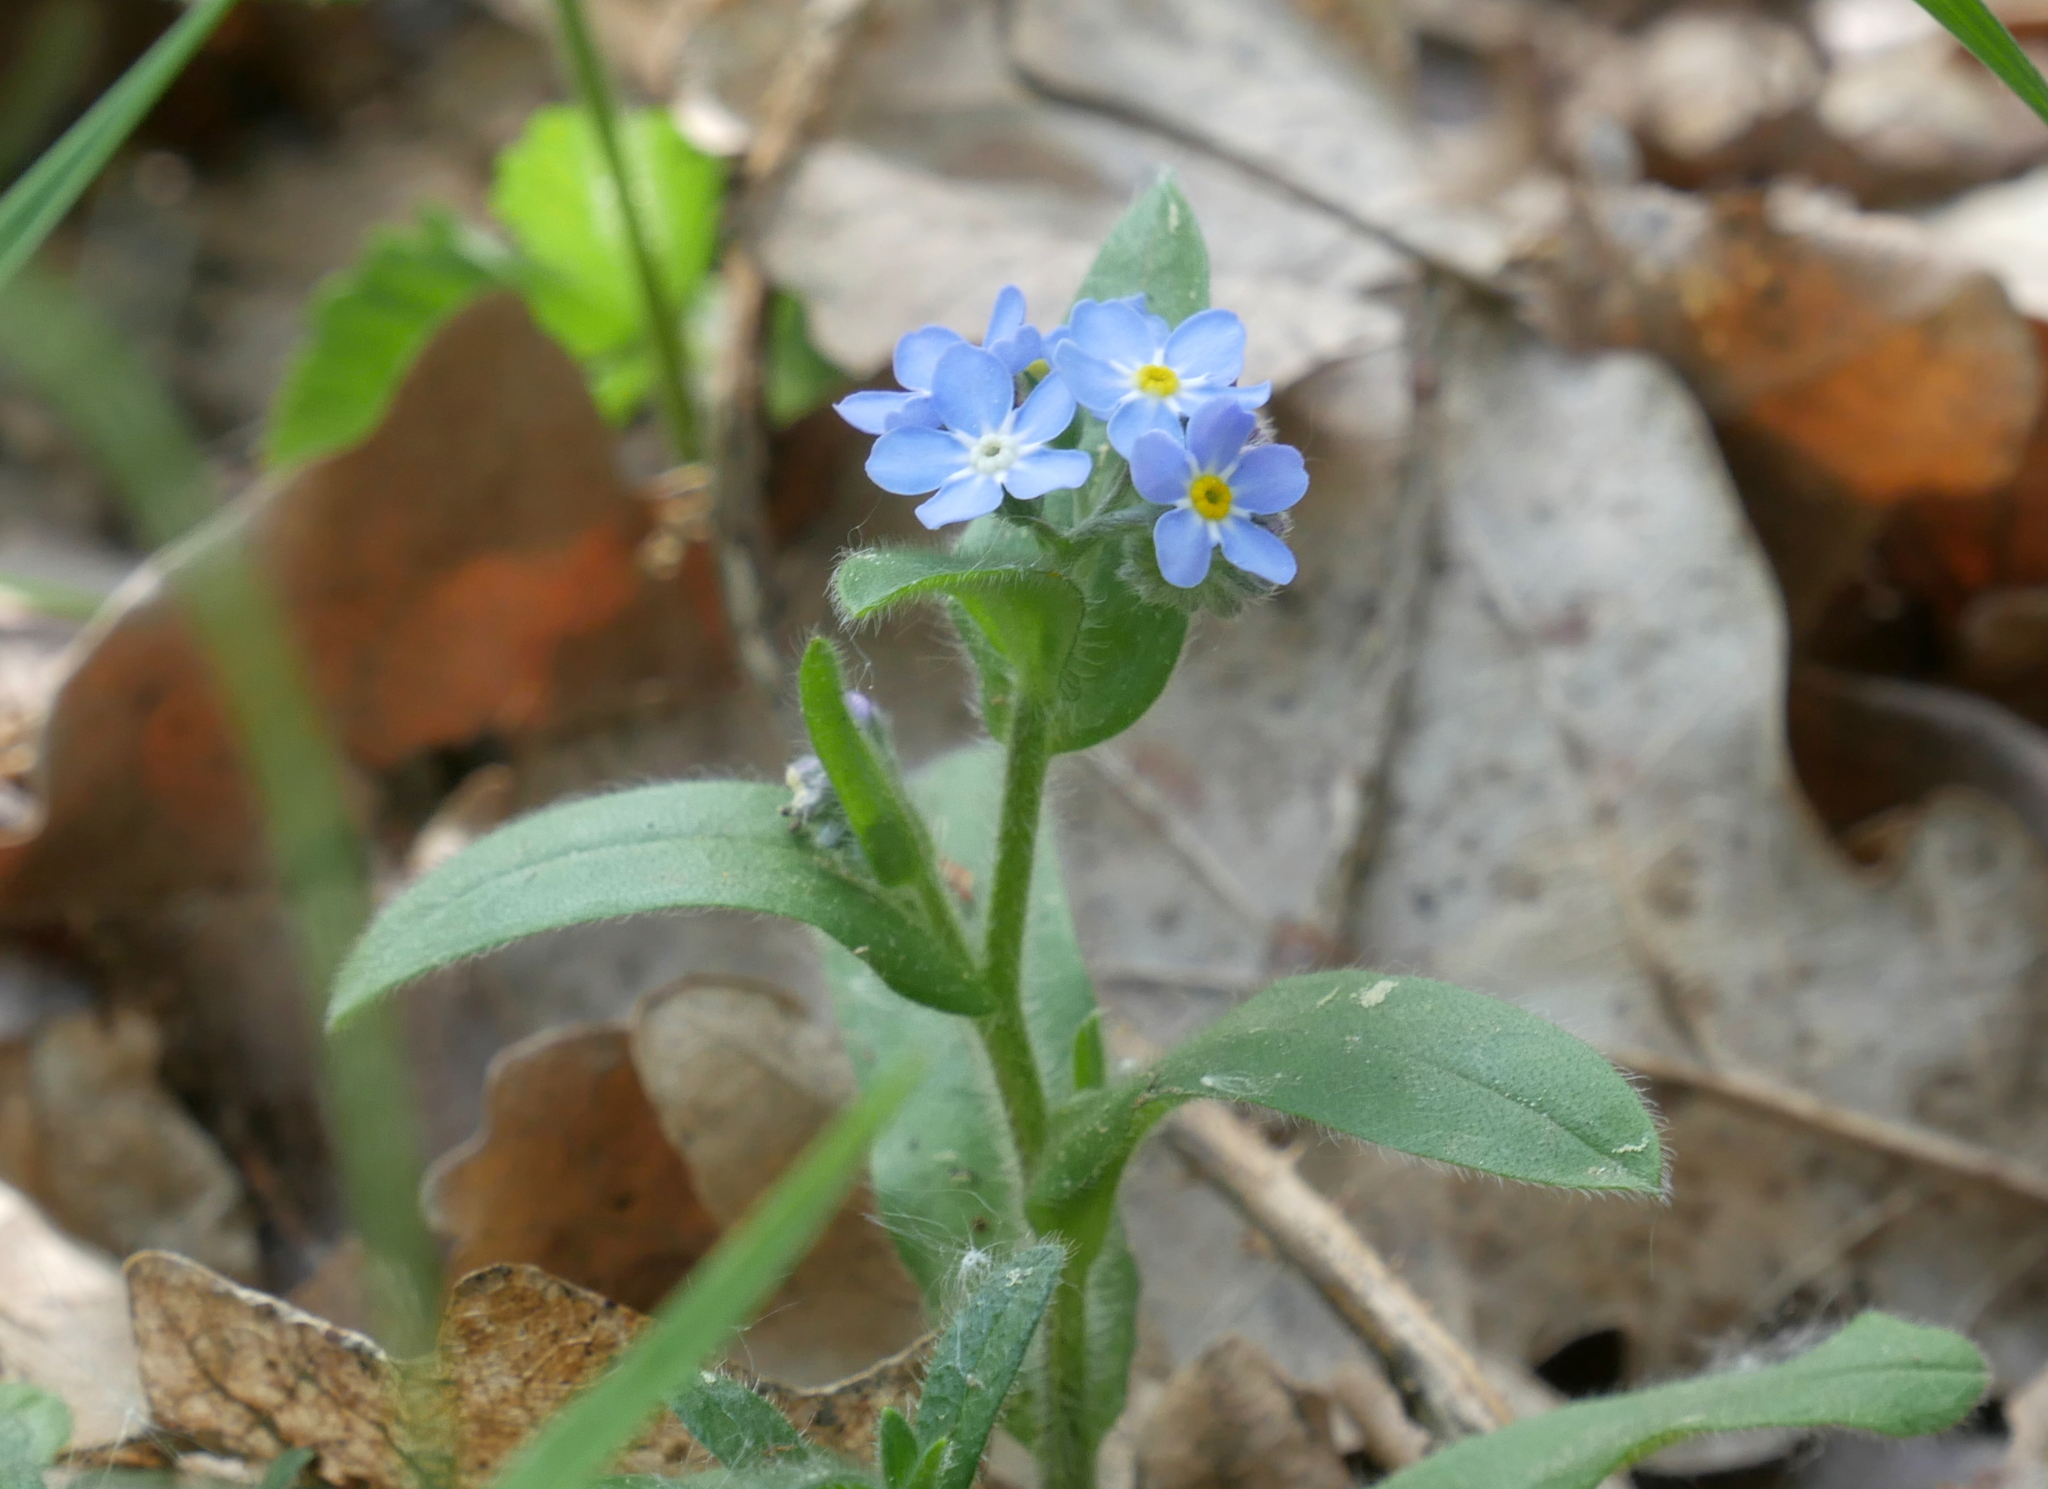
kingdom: Plantae
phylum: Tracheophyta
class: Magnoliopsida
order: Boraginales
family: Boraginaceae
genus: Myosotis
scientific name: Myosotis sylvatica
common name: Wood forget-me-not
